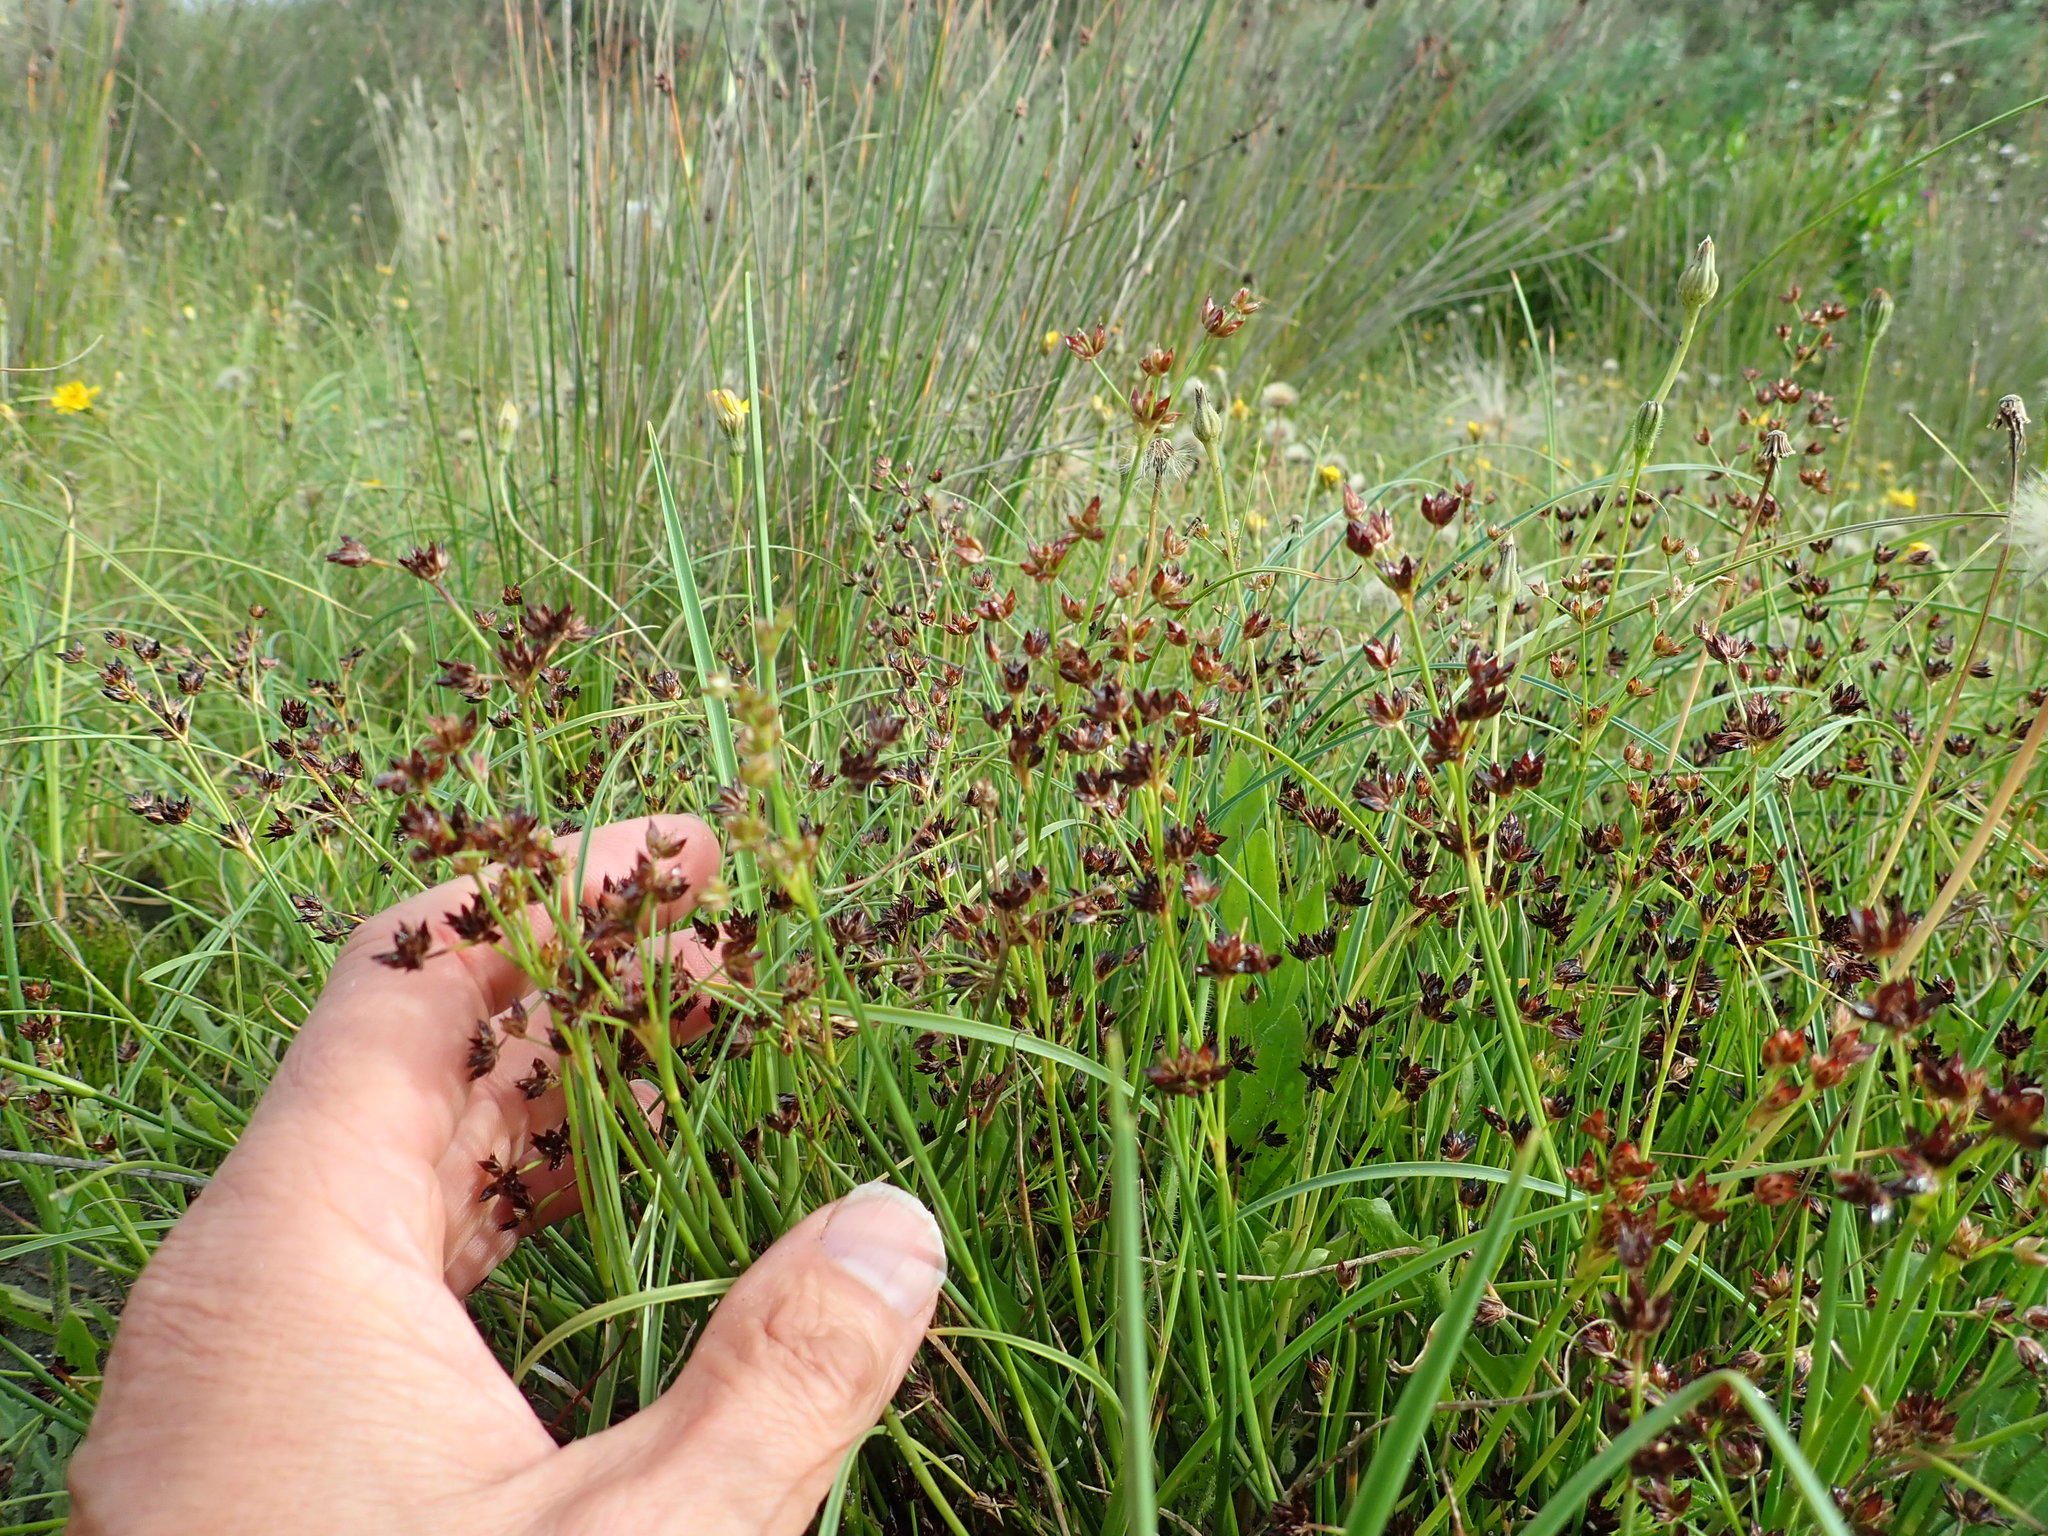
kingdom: Plantae
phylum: Tracheophyta
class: Liliopsida
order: Poales
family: Juncaceae
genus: Juncus
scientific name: Juncus articulatus
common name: Jointed rush
